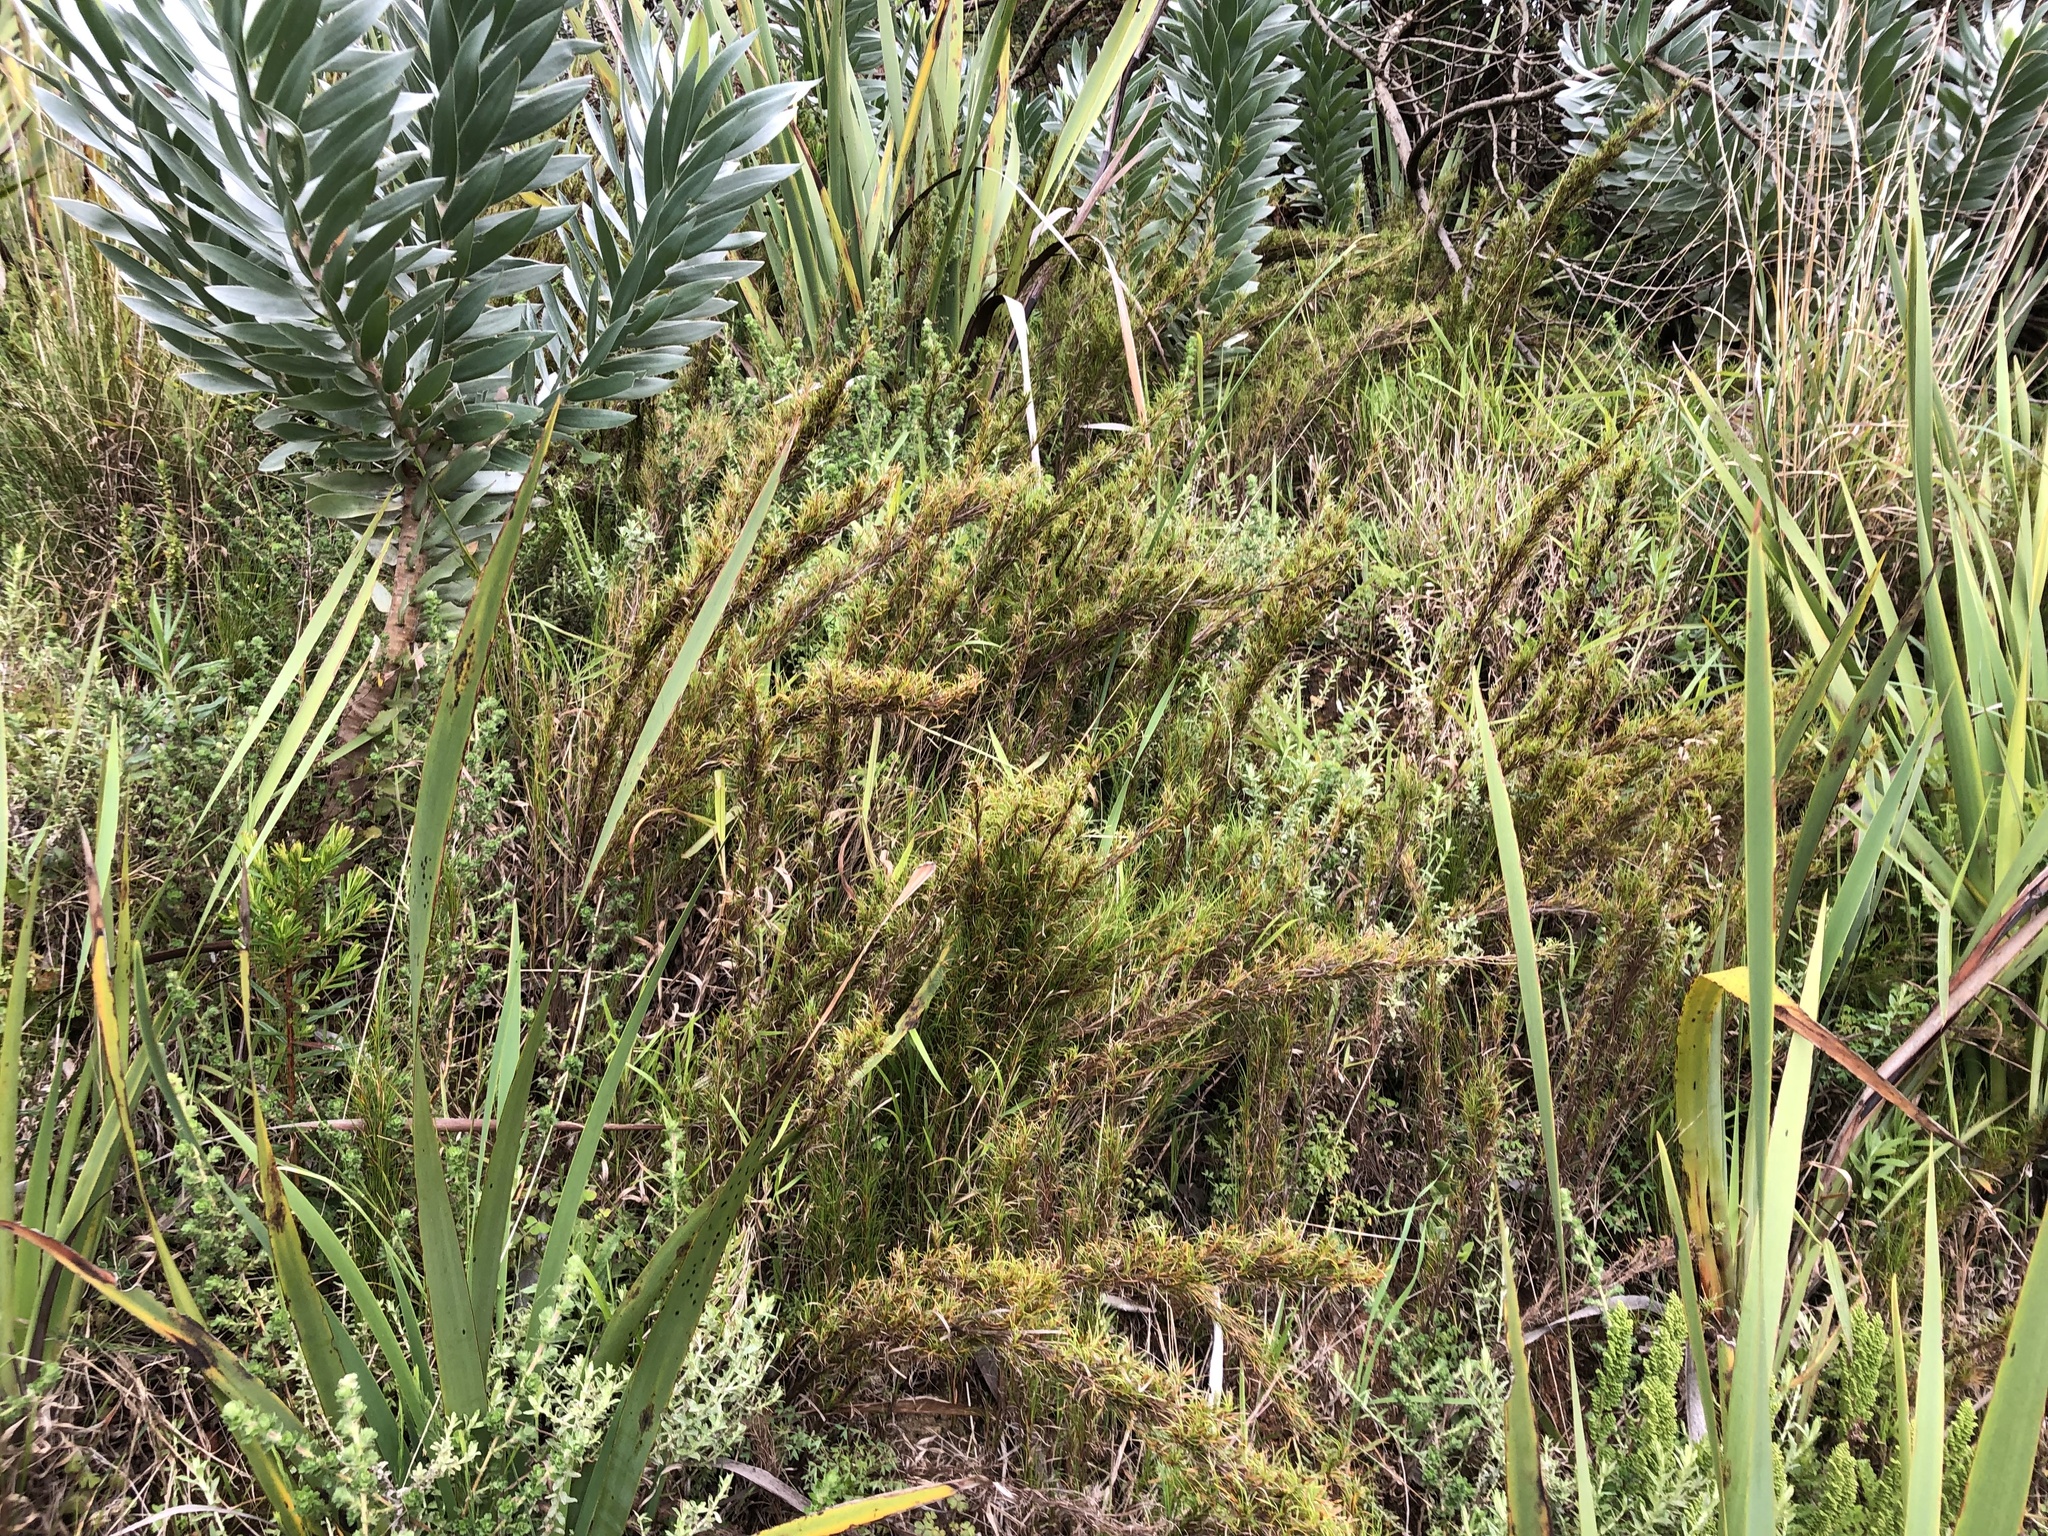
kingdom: Plantae
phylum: Tracheophyta
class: Liliopsida
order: Poales
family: Cyperaceae
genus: Ficinia
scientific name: Ficinia ramosissima
